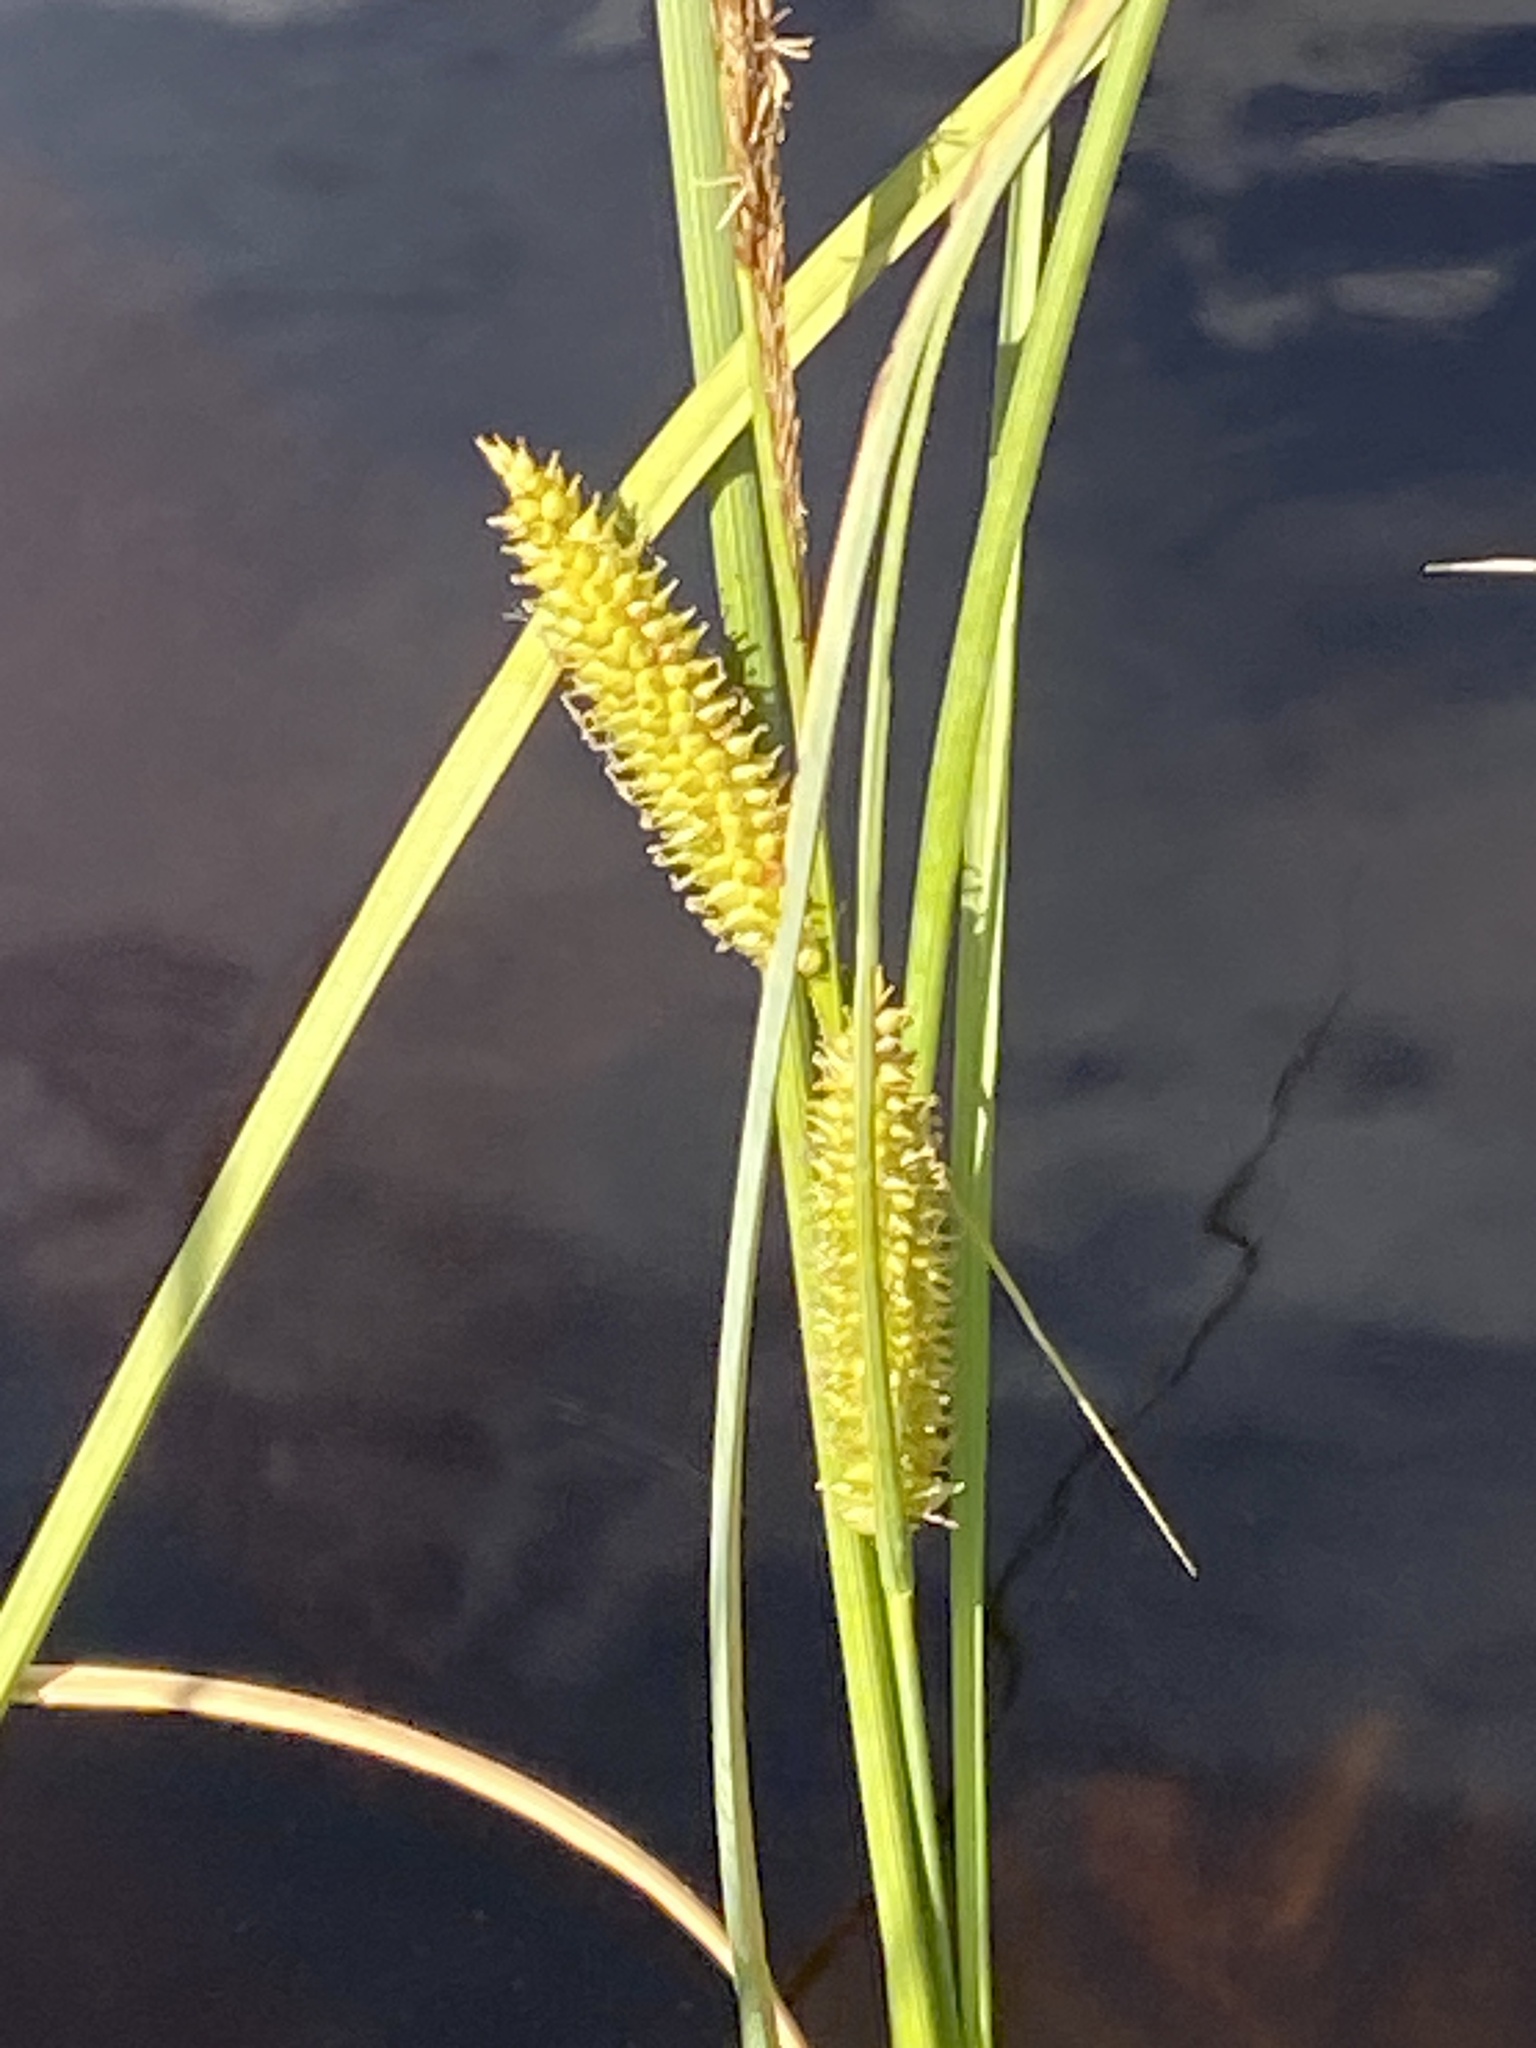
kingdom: Plantae
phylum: Tracheophyta
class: Liliopsida
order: Poales
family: Cyperaceae
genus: Carex
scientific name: Carex rostrata
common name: Bottle sedge
